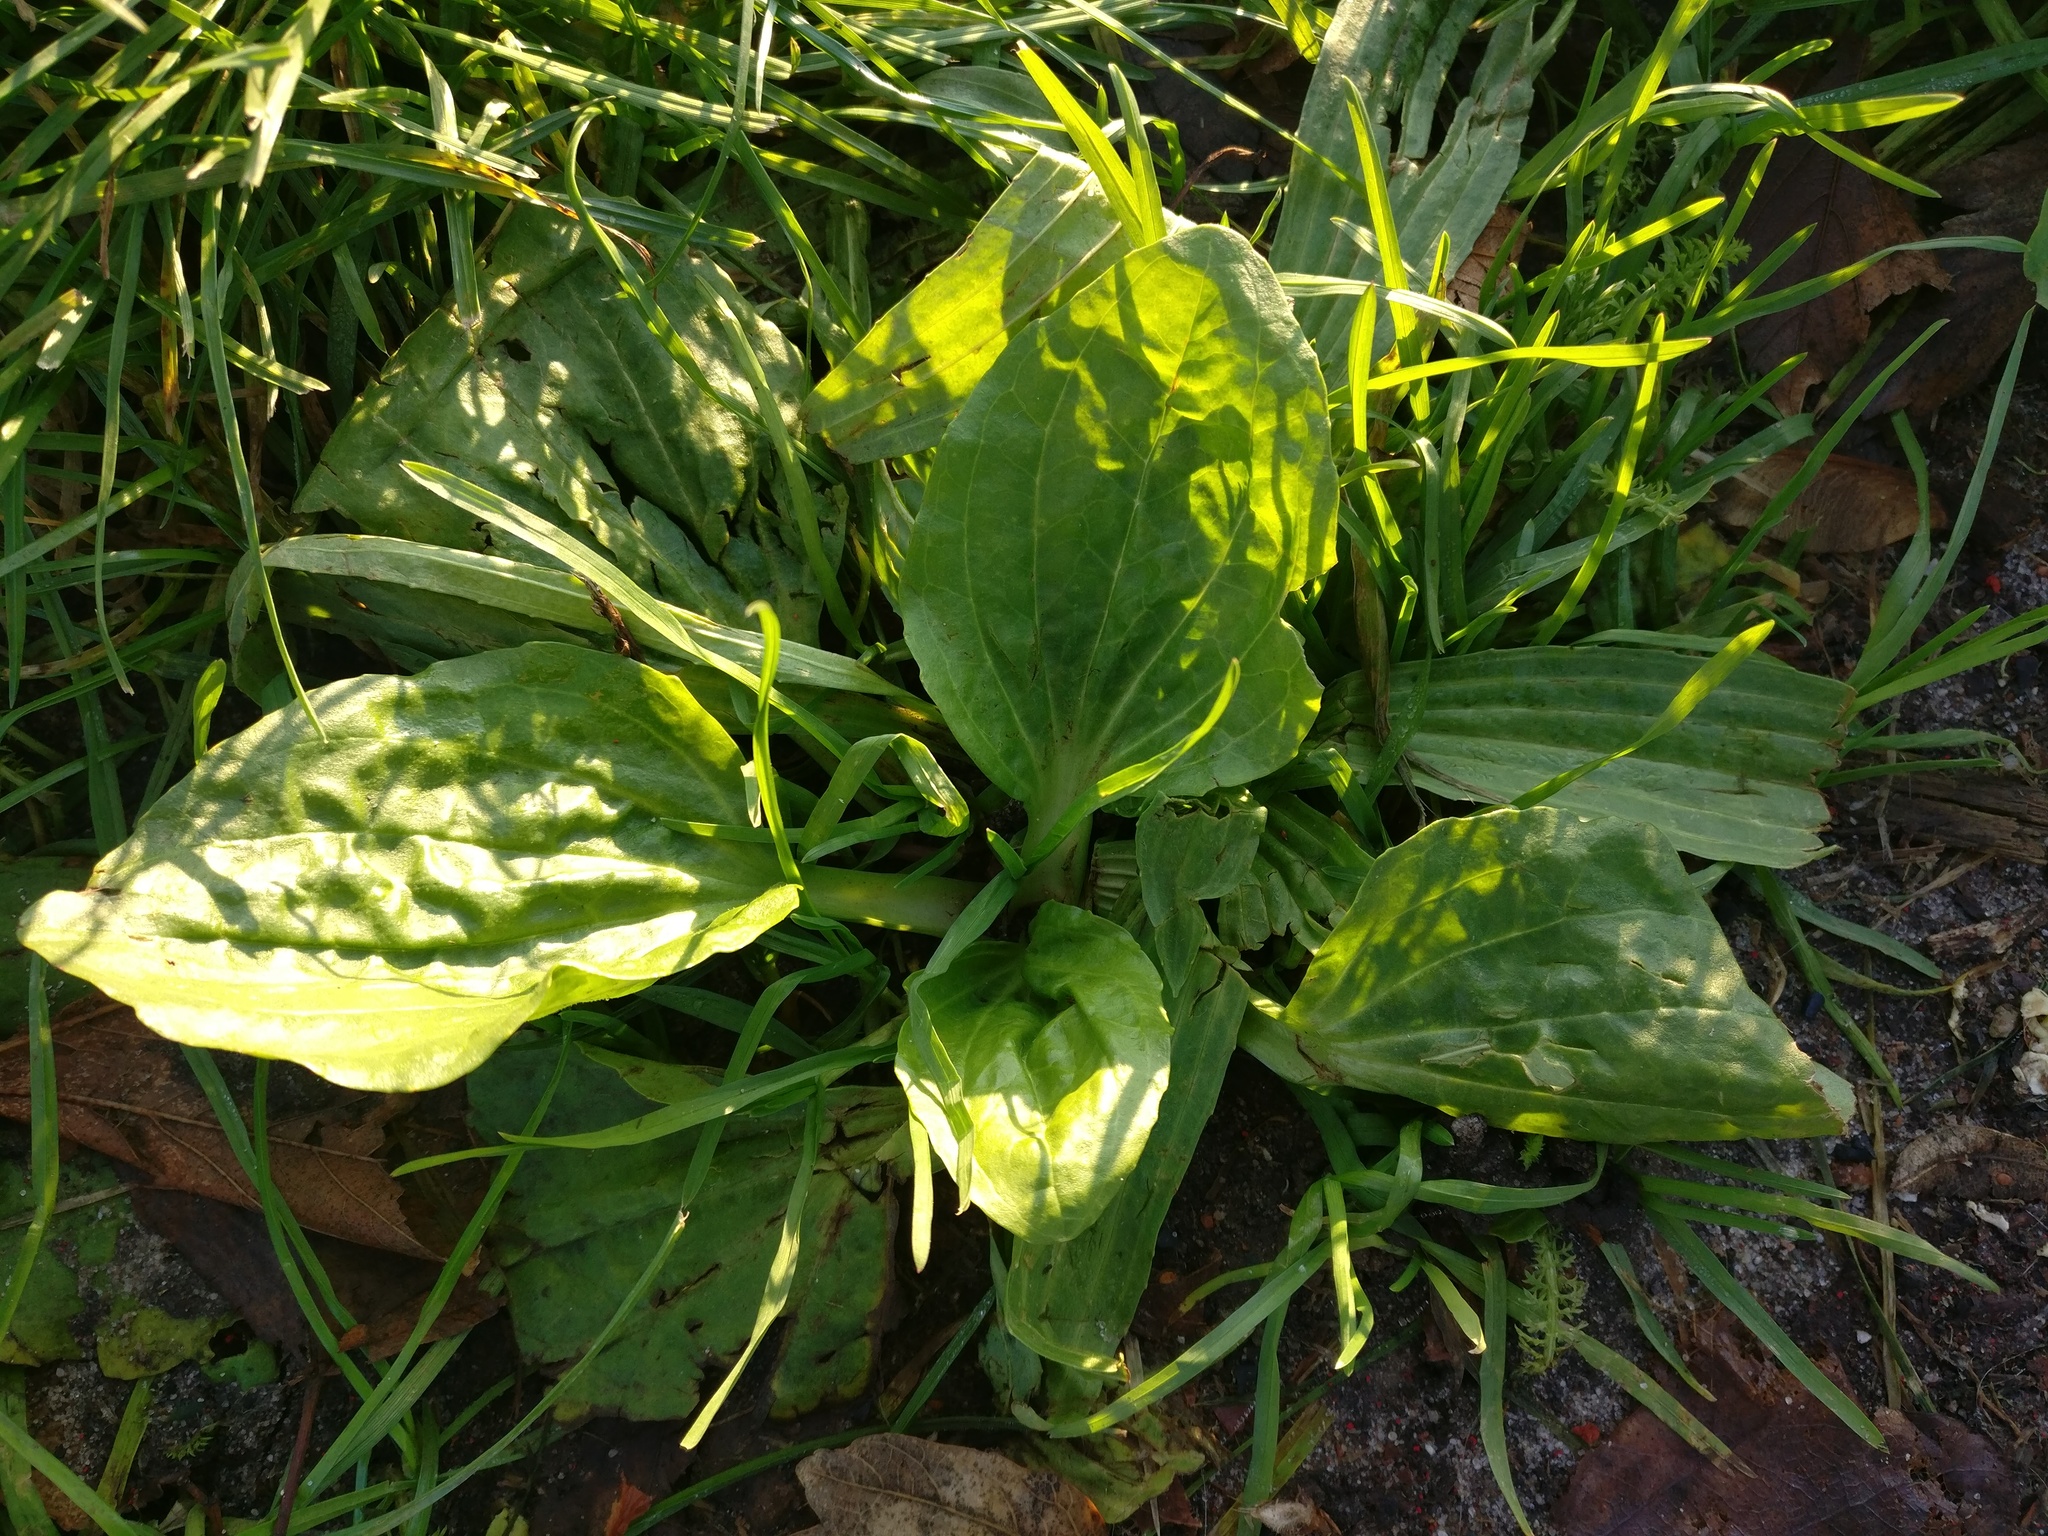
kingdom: Plantae
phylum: Tracheophyta
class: Magnoliopsida
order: Lamiales
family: Plantaginaceae
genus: Plantago
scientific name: Plantago major
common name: Common plantain
